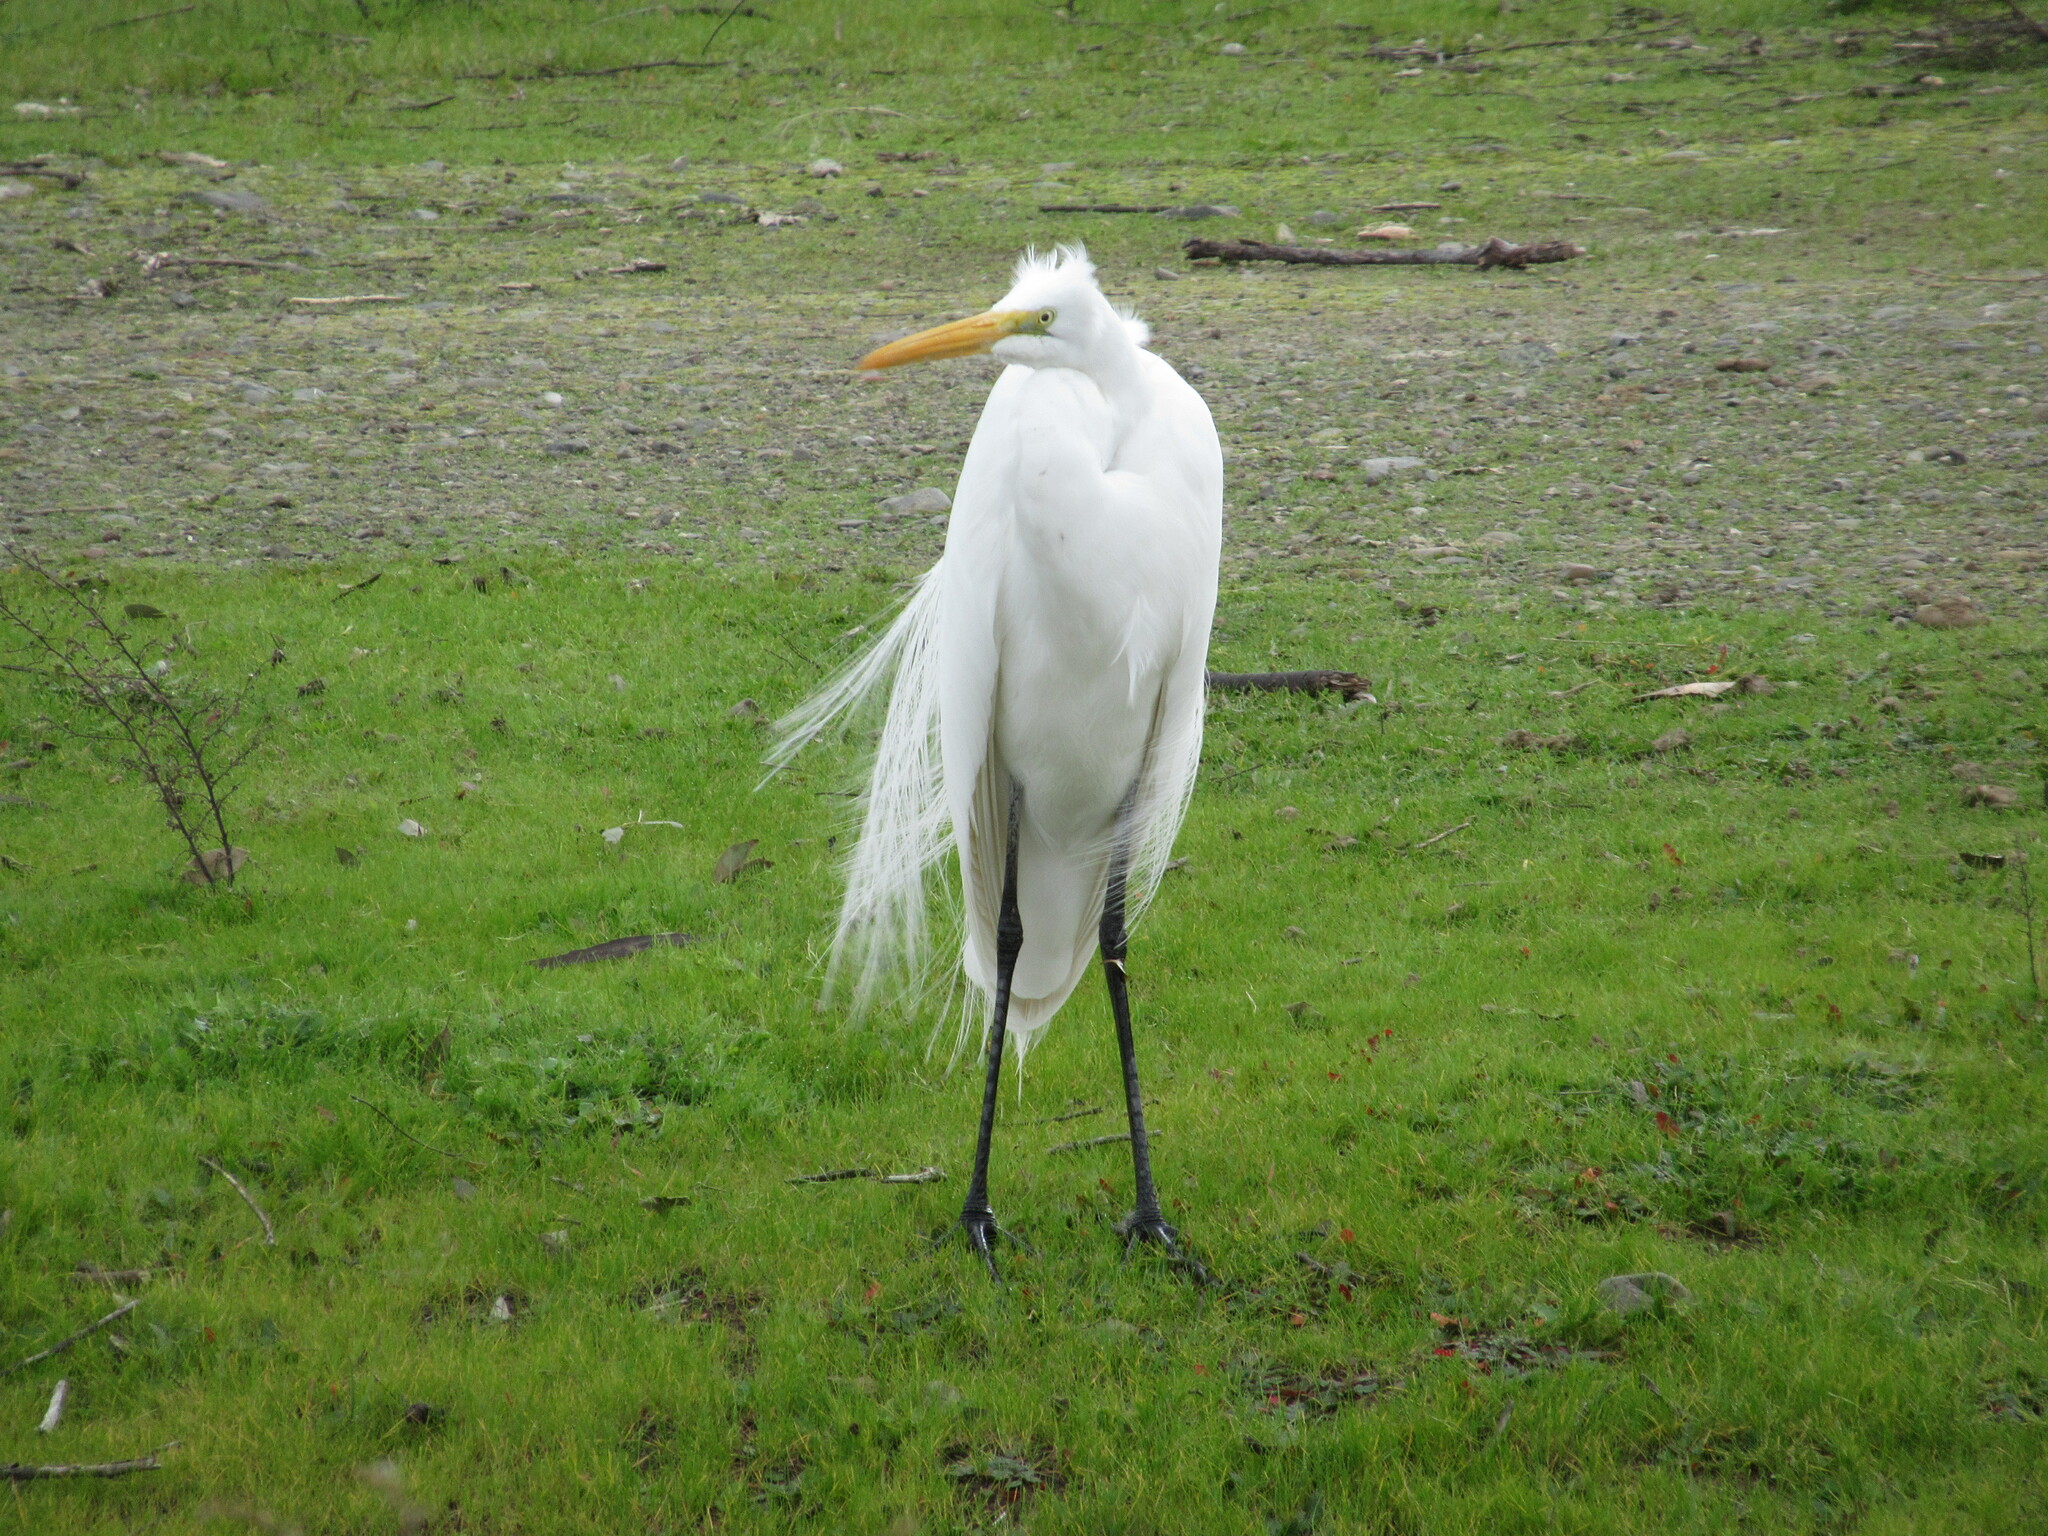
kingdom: Animalia
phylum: Chordata
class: Aves
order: Pelecaniformes
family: Ardeidae
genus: Ardea
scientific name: Ardea alba
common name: Great egret
